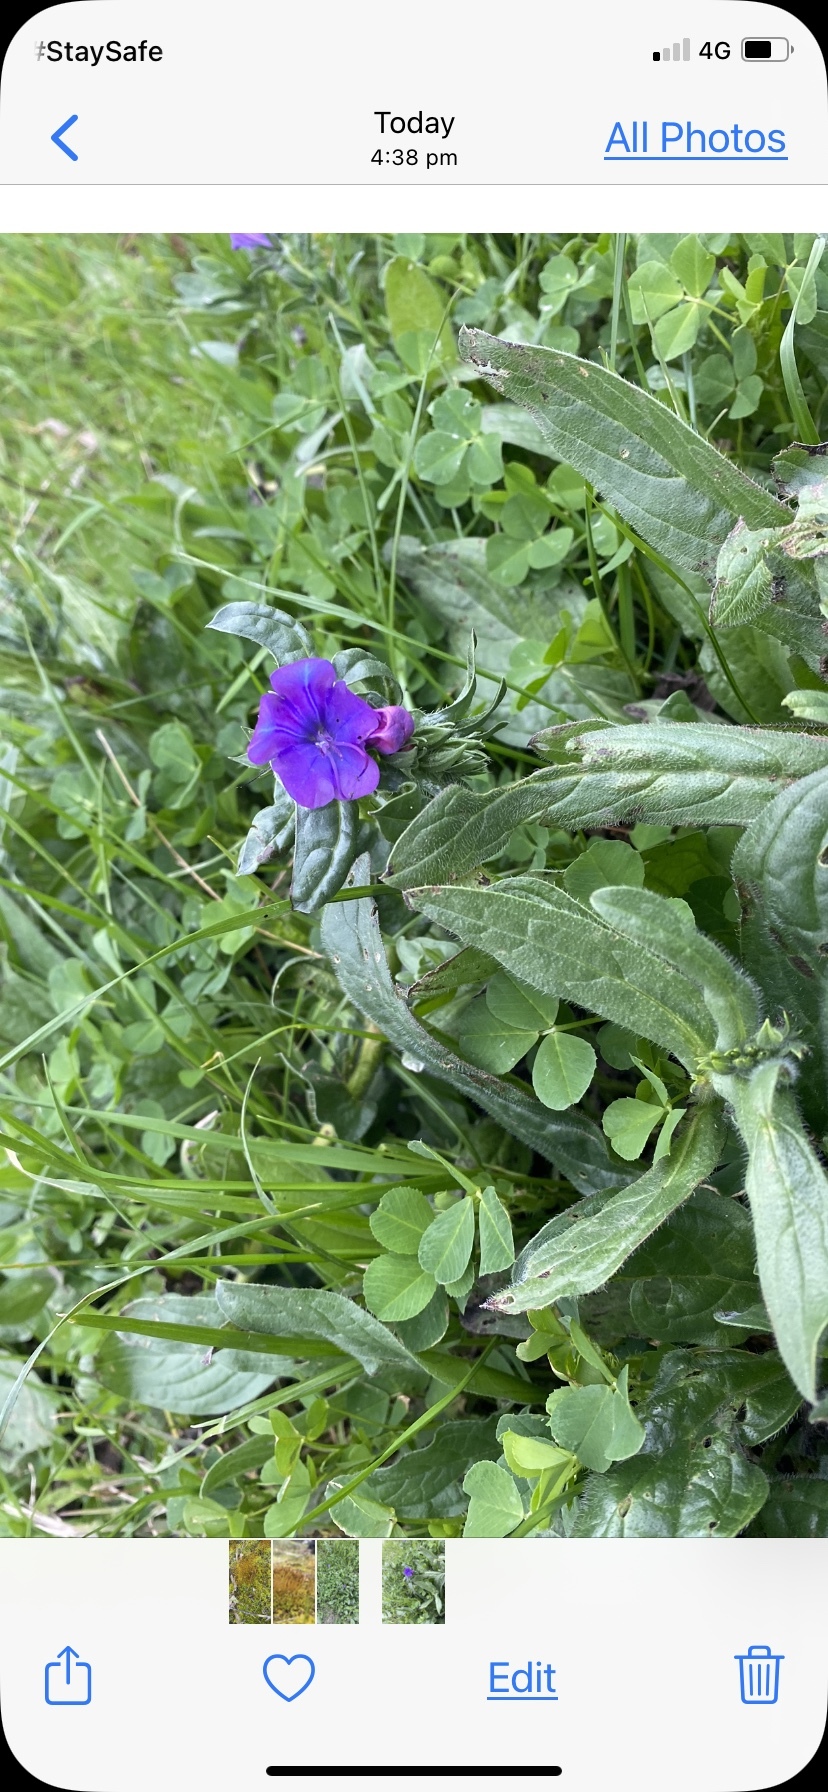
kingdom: Plantae
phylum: Tracheophyta
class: Magnoliopsida
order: Boraginales
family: Boraginaceae
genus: Echium
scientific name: Echium plantagineum
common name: Purple viper's-bugloss
